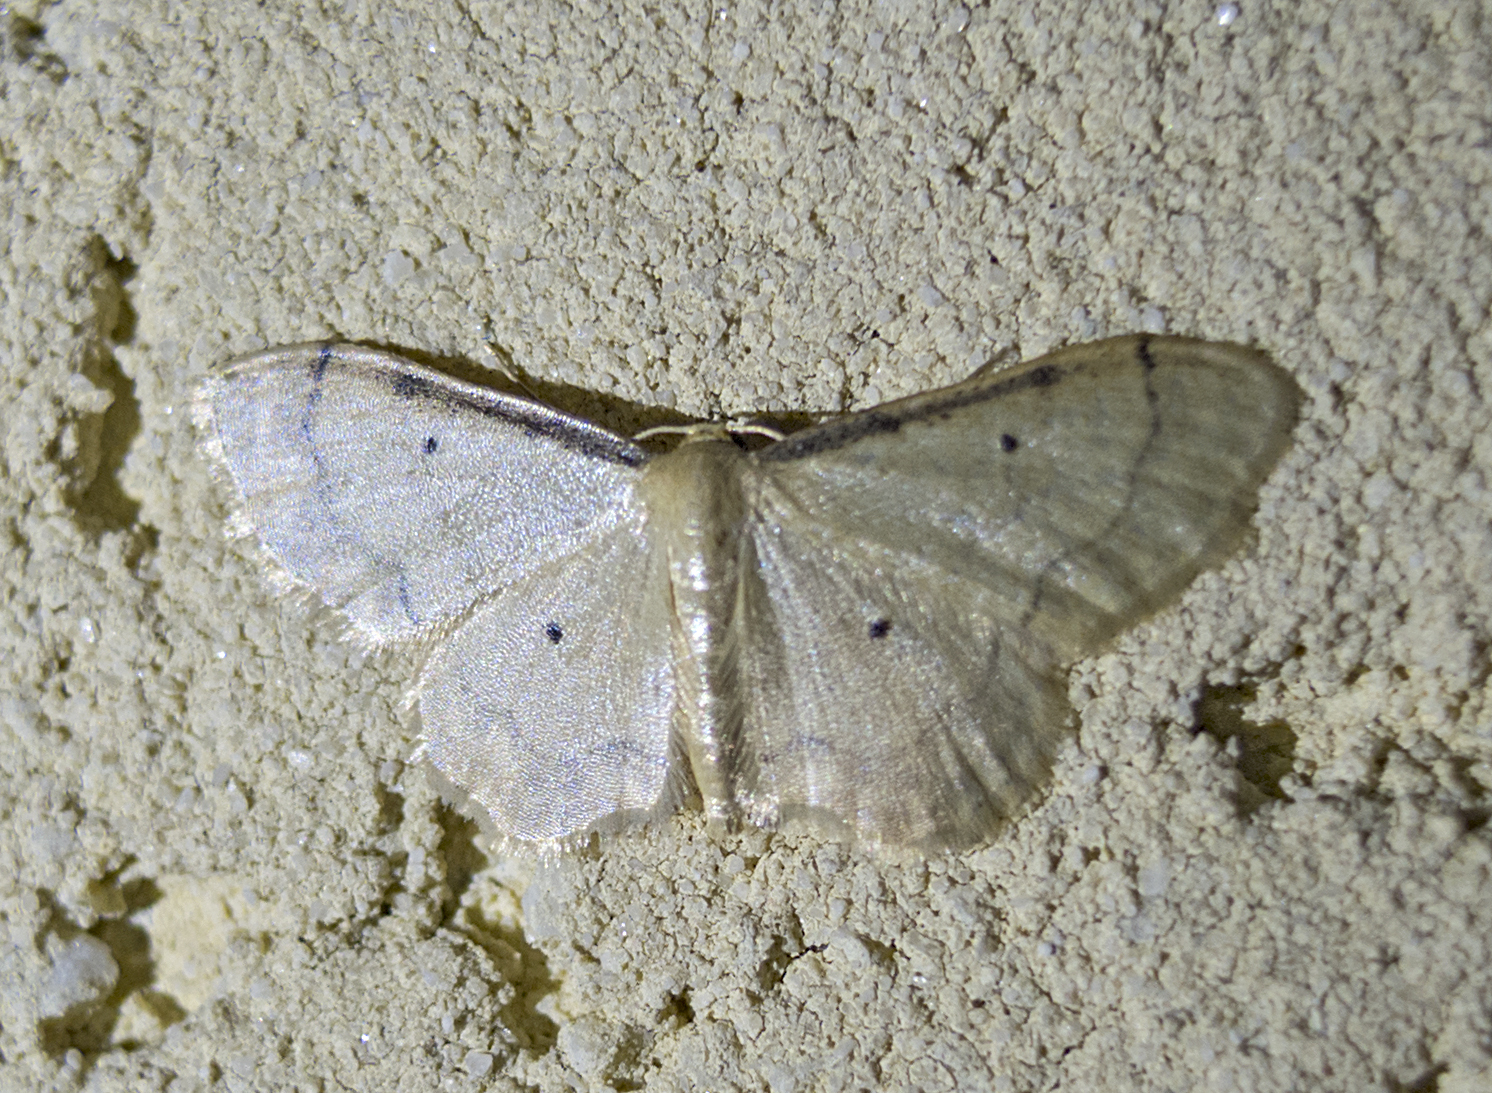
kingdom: Animalia
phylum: Arthropoda
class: Insecta
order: Lepidoptera
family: Geometridae
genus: Idaea
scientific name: Idaea politaria
